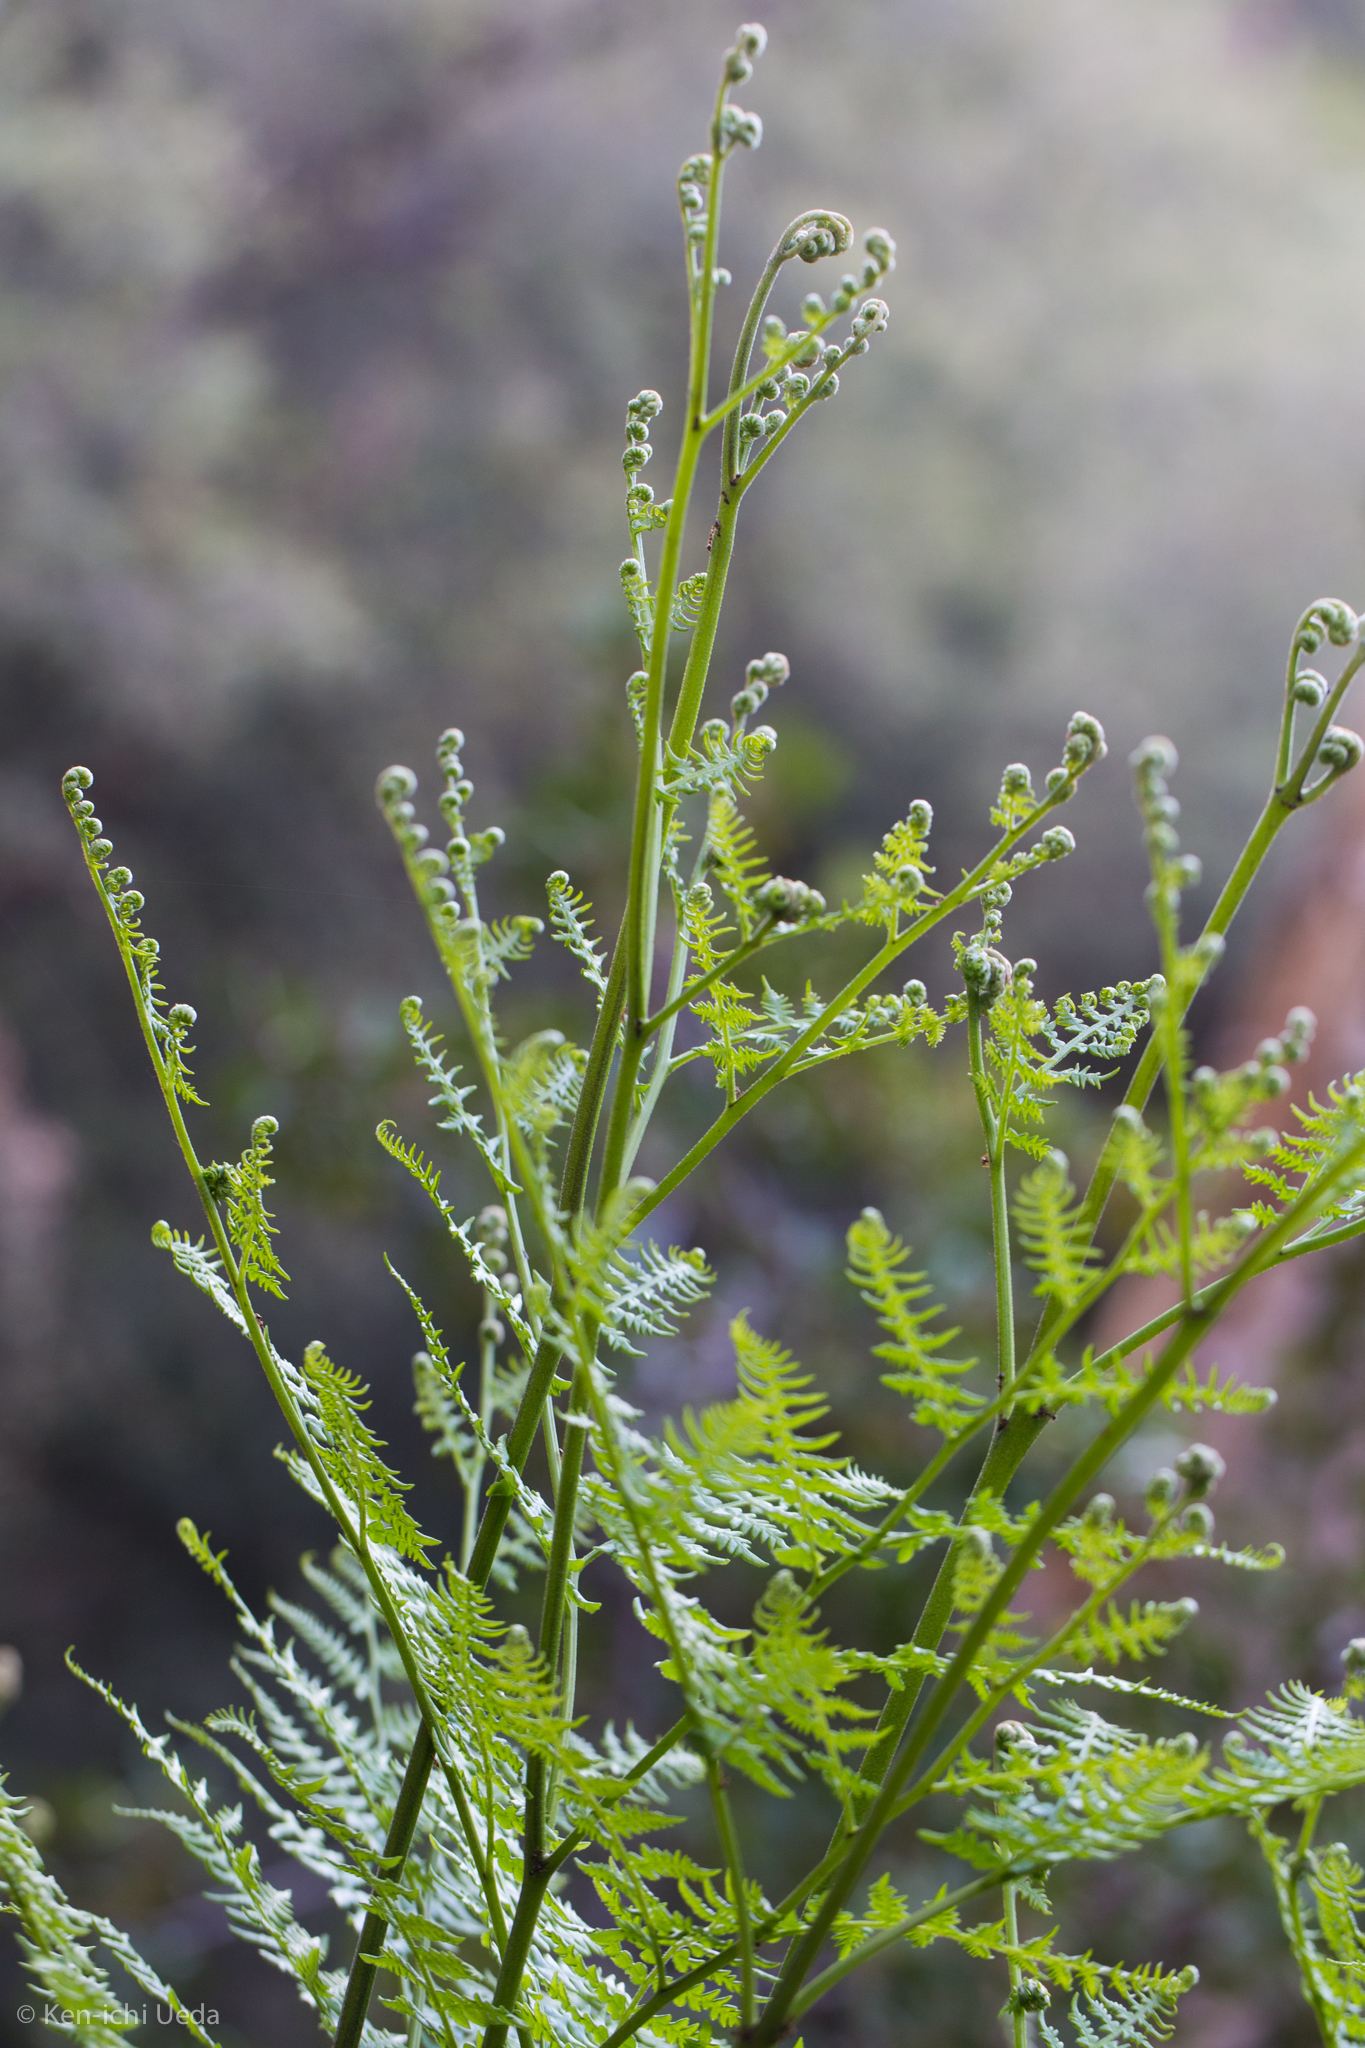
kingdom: Plantae
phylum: Tracheophyta
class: Polypodiopsida
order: Polypodiales
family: Dennstaedtiaceae
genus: Pteridium
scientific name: Pteridium aquilinum
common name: Bracken
